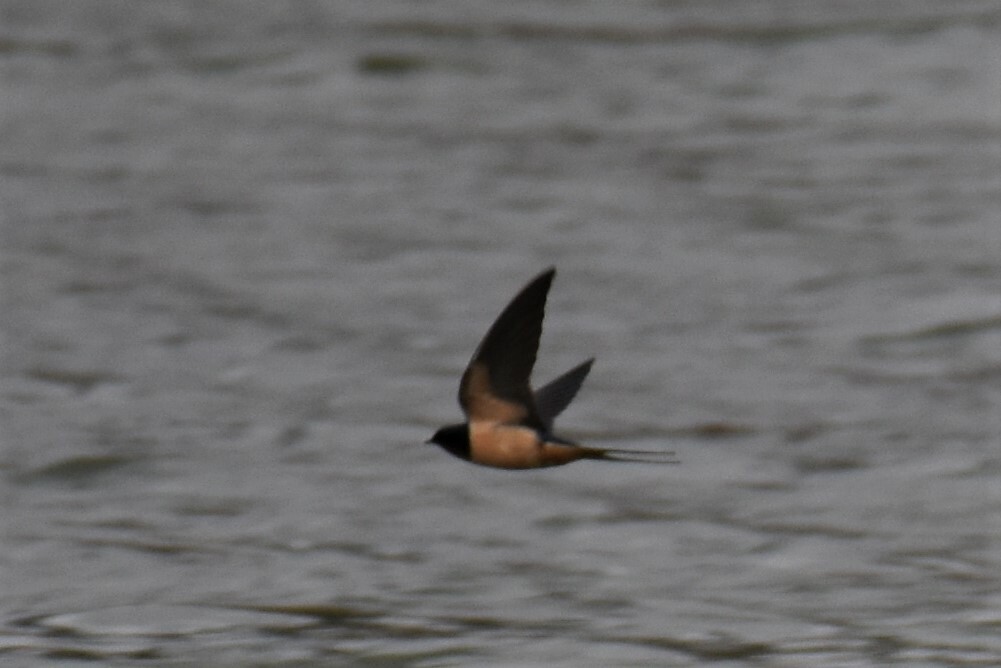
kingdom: Animalia
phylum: Chordata
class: Aves
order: Passeriformes
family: Hirundinidae
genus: Hirundo
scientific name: Hirundo rustica
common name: Barn swallow
